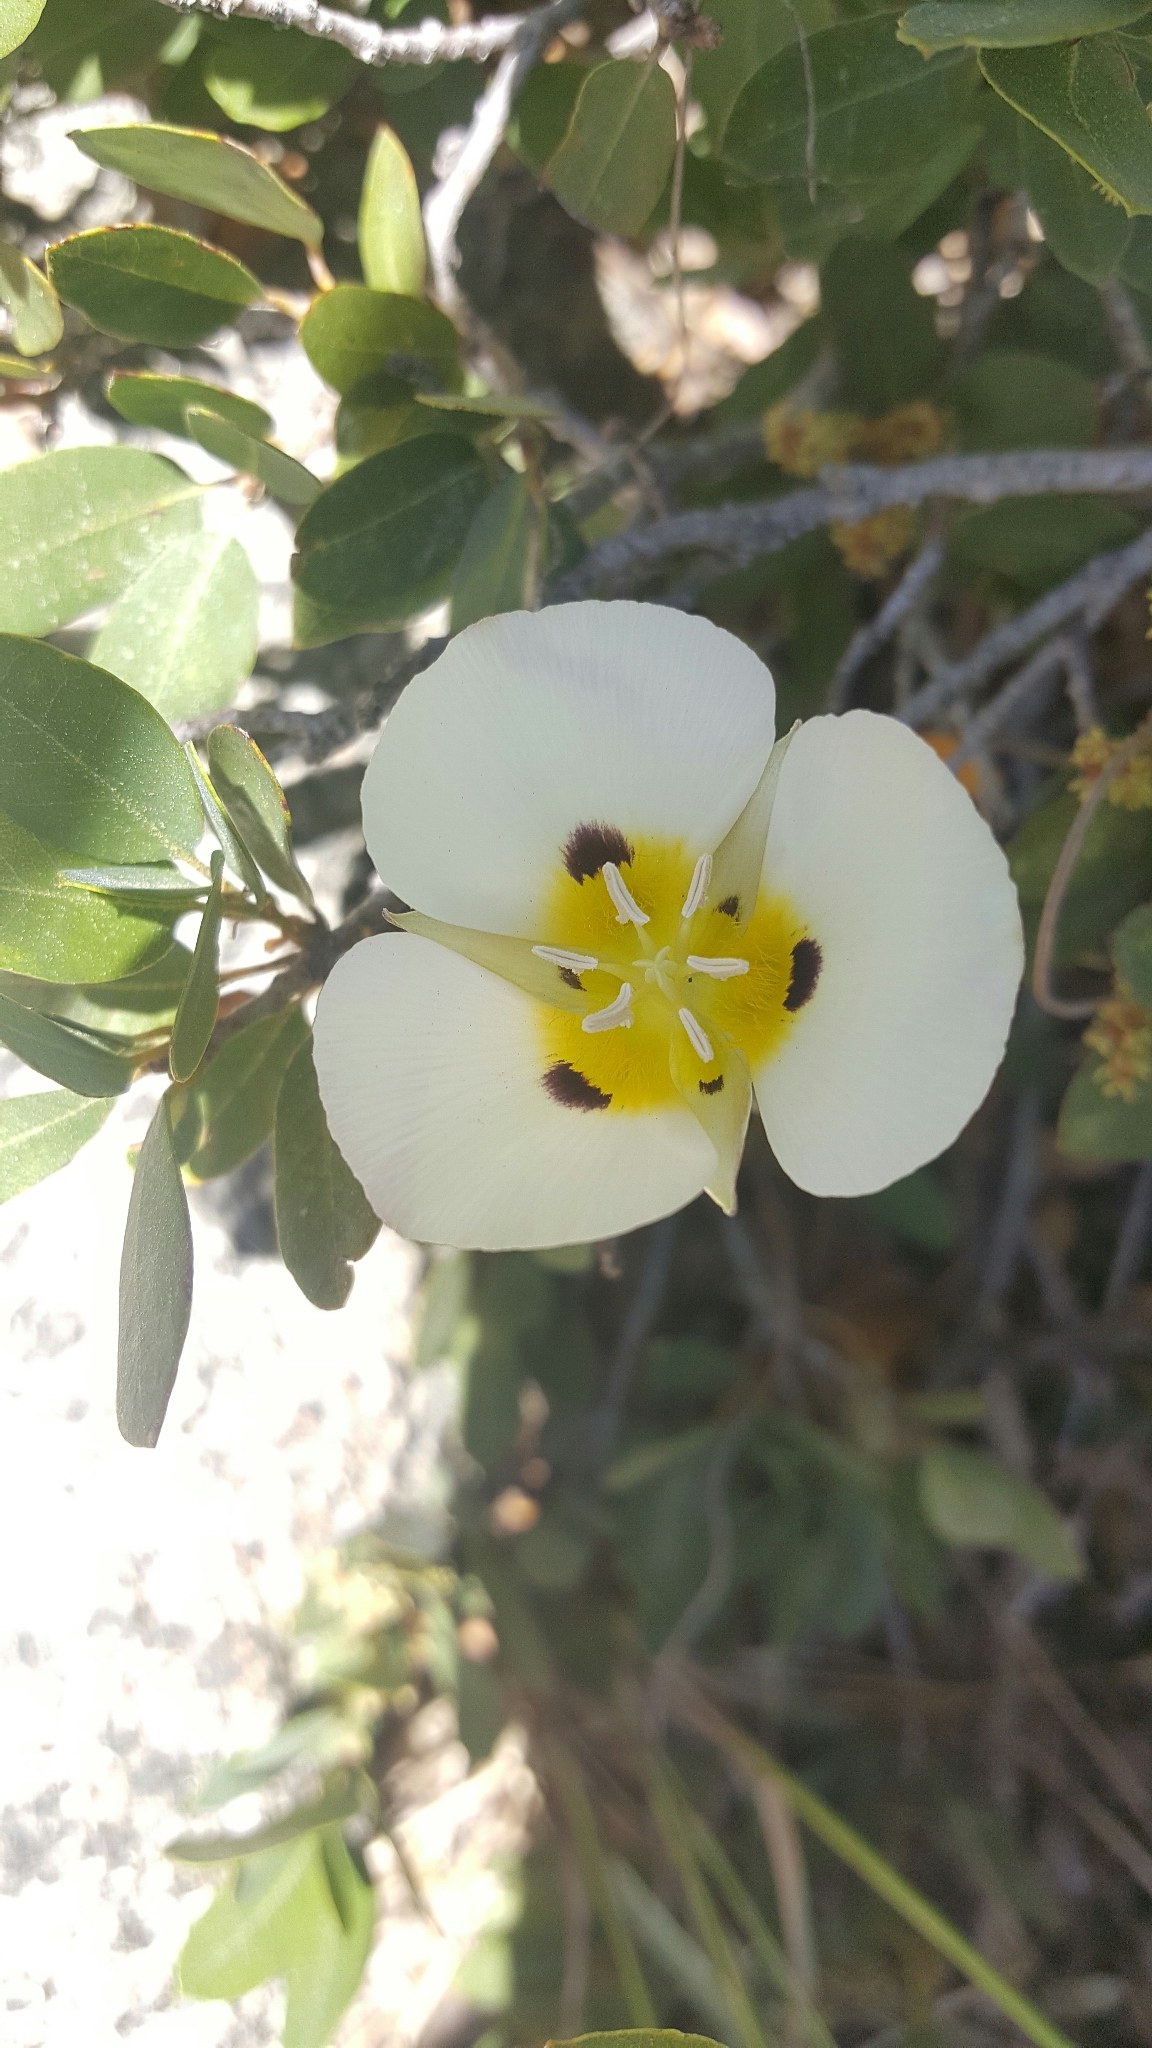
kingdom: Plantae
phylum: Tracheophyta
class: Liliopsida
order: Liliales
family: Liliaceae
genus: Calochortus
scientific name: Calochortus leichtlinii
